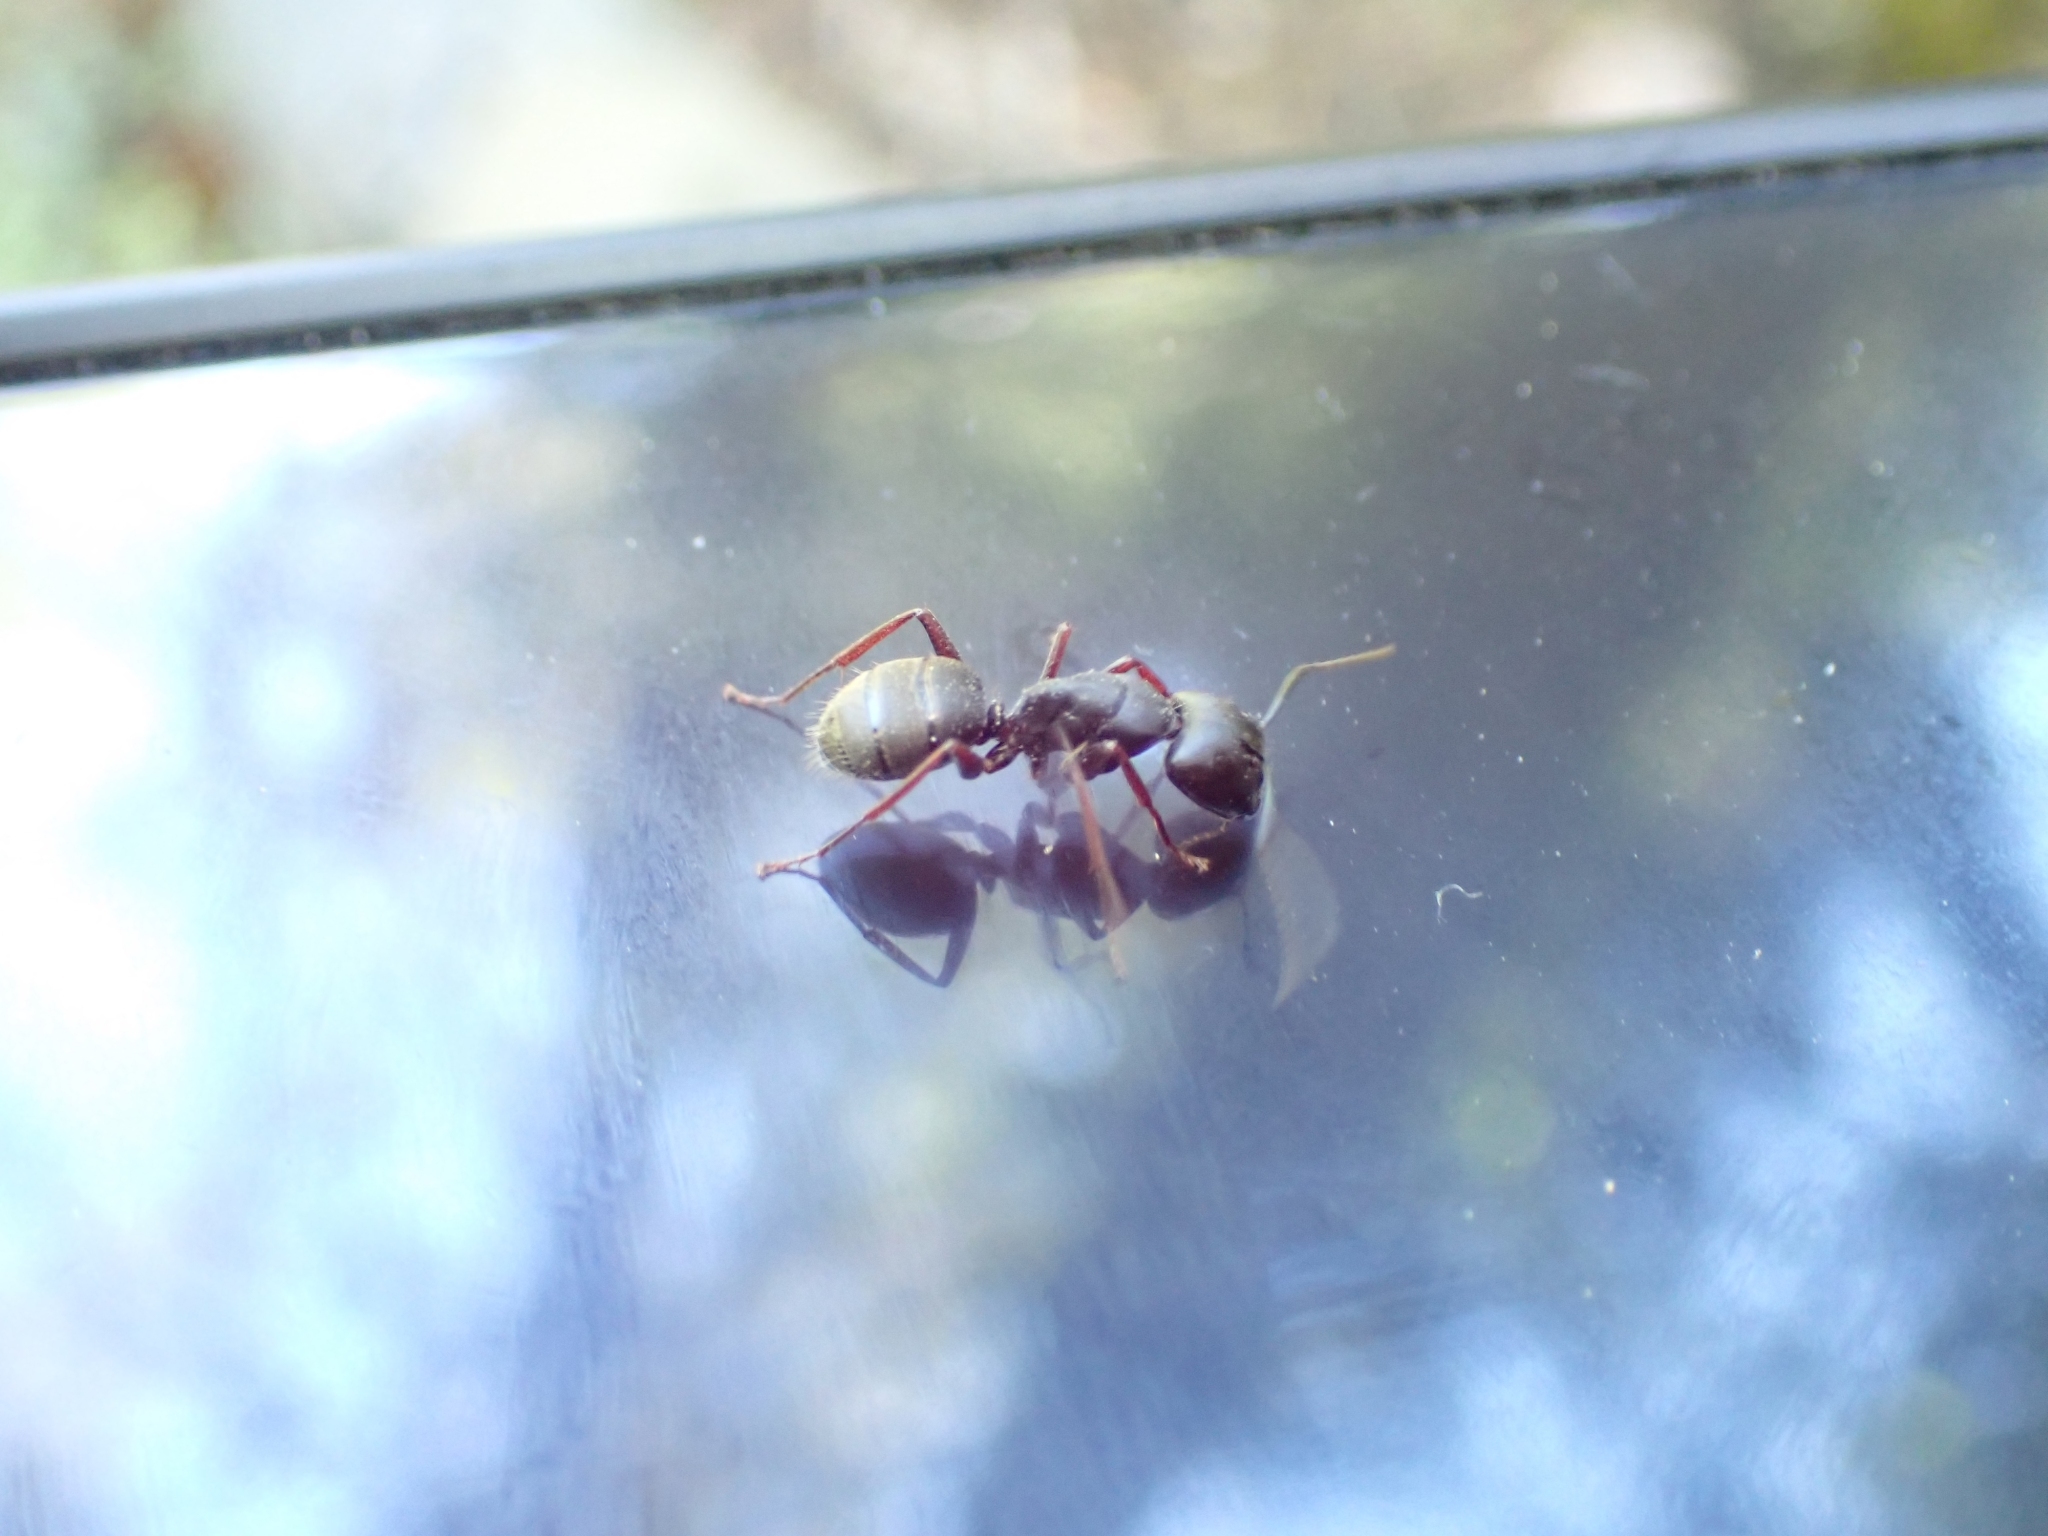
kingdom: Animalia
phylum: Arthropoda
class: Insecta
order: Hymenoptera
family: Formicidae
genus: Camponotus
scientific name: Camponotus modoc
